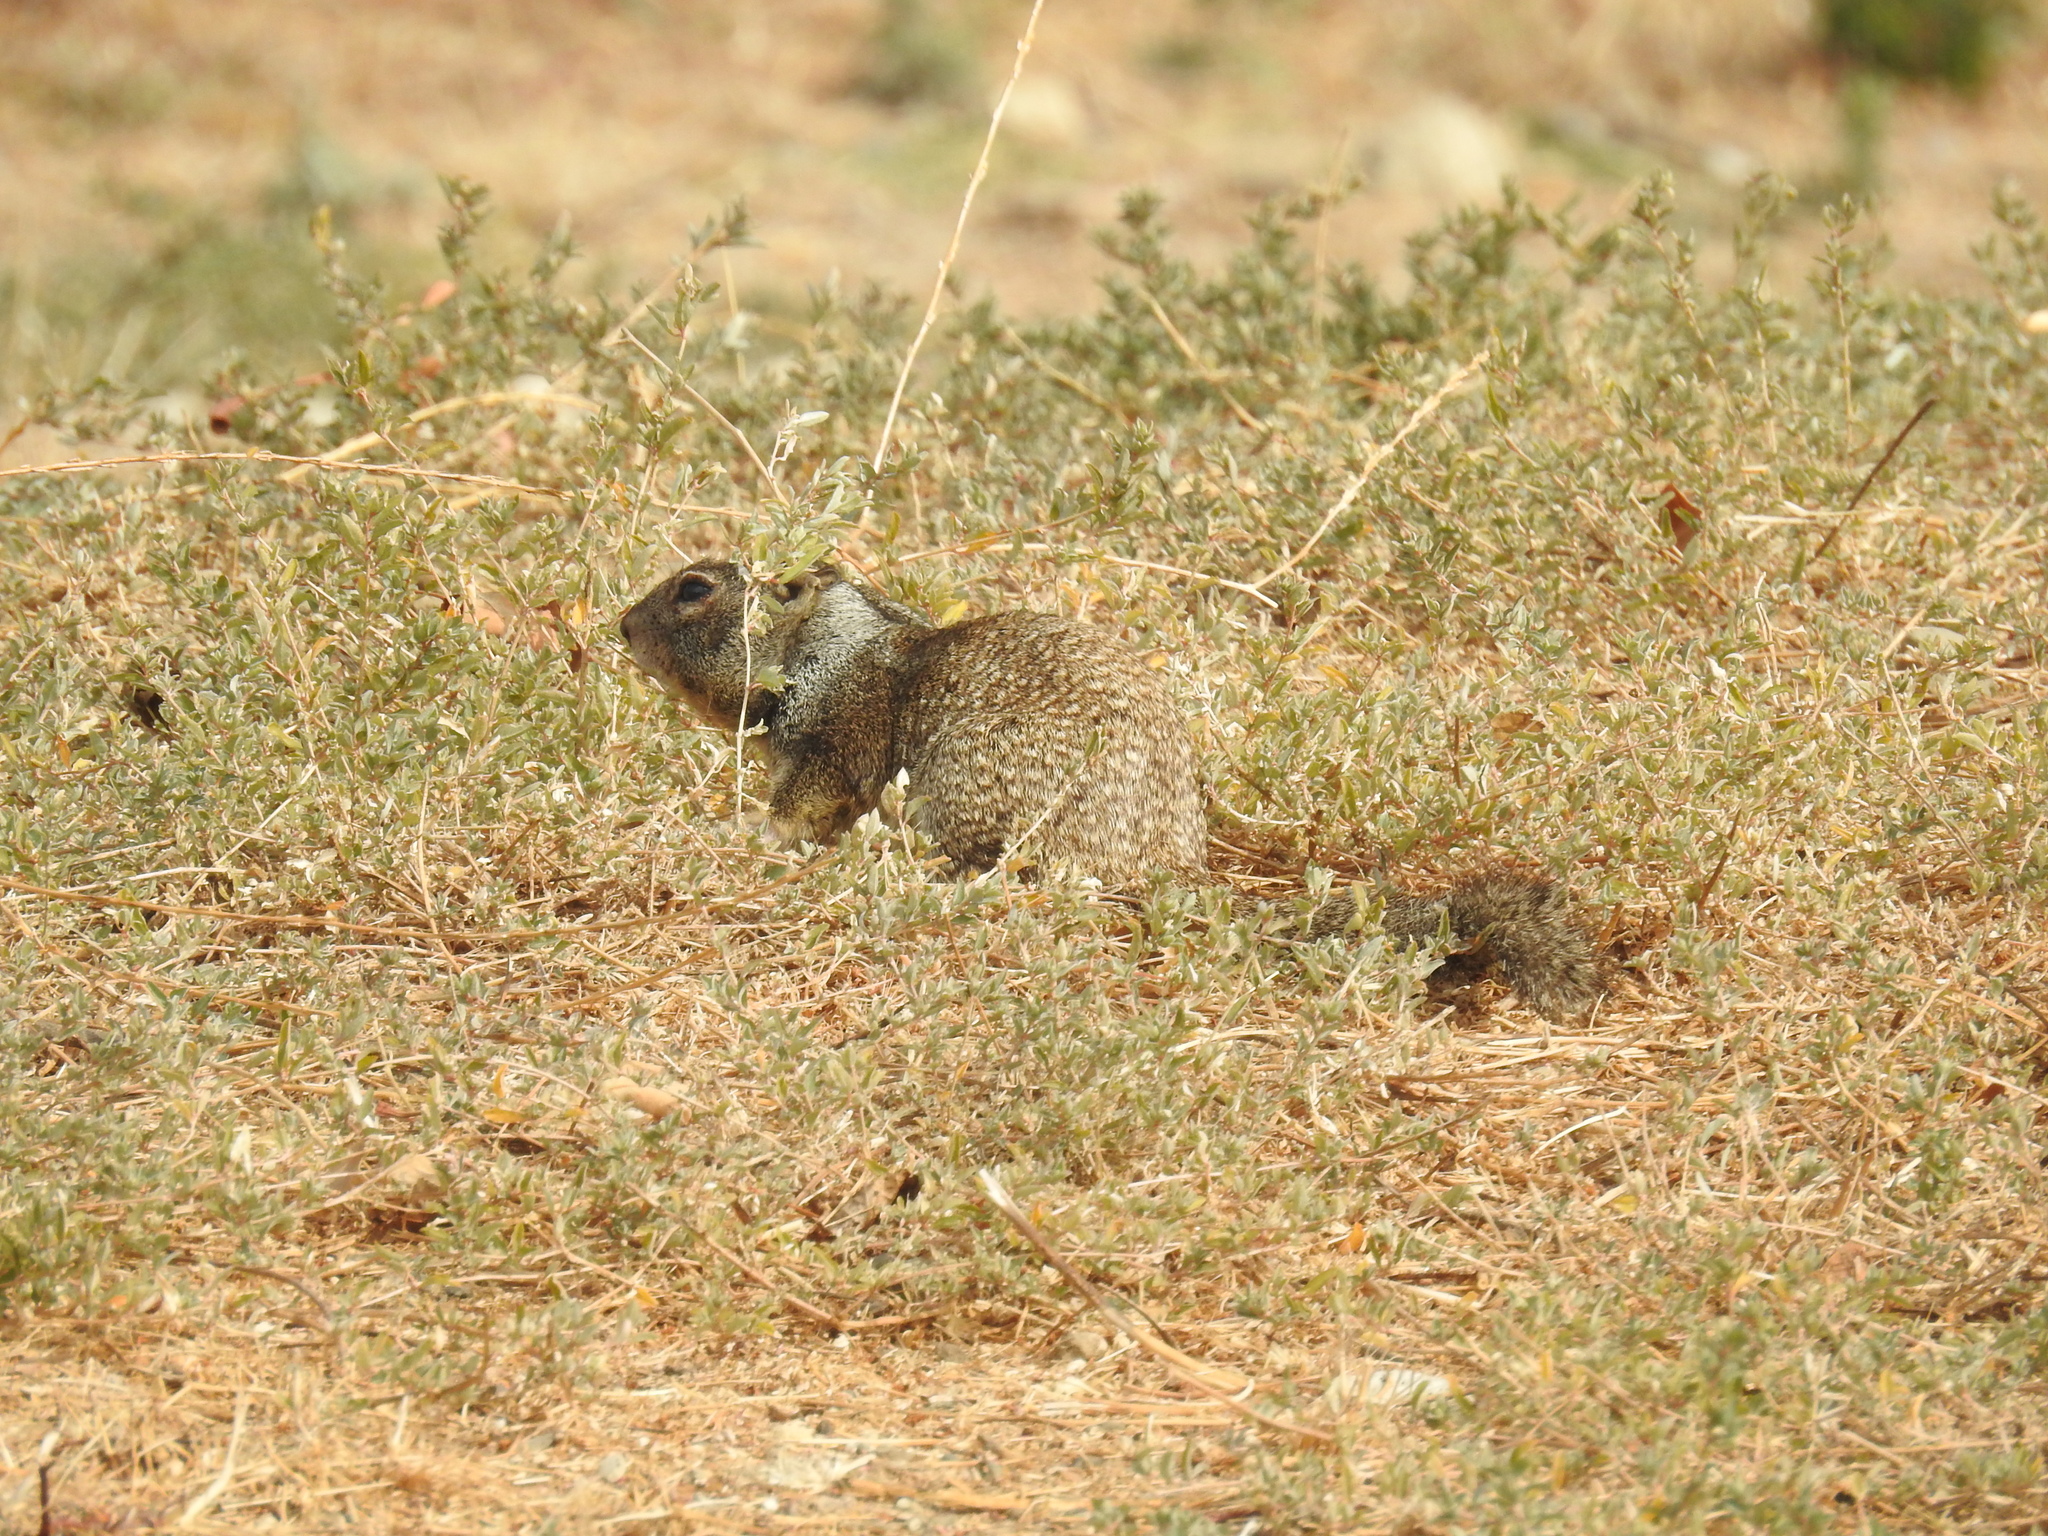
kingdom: Animalia
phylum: Chordata
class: Mammalia
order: Rodentia
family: Sciuridae
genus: Otospermophilus
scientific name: Otospermophilus beecheyi
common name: California ground squirrel
